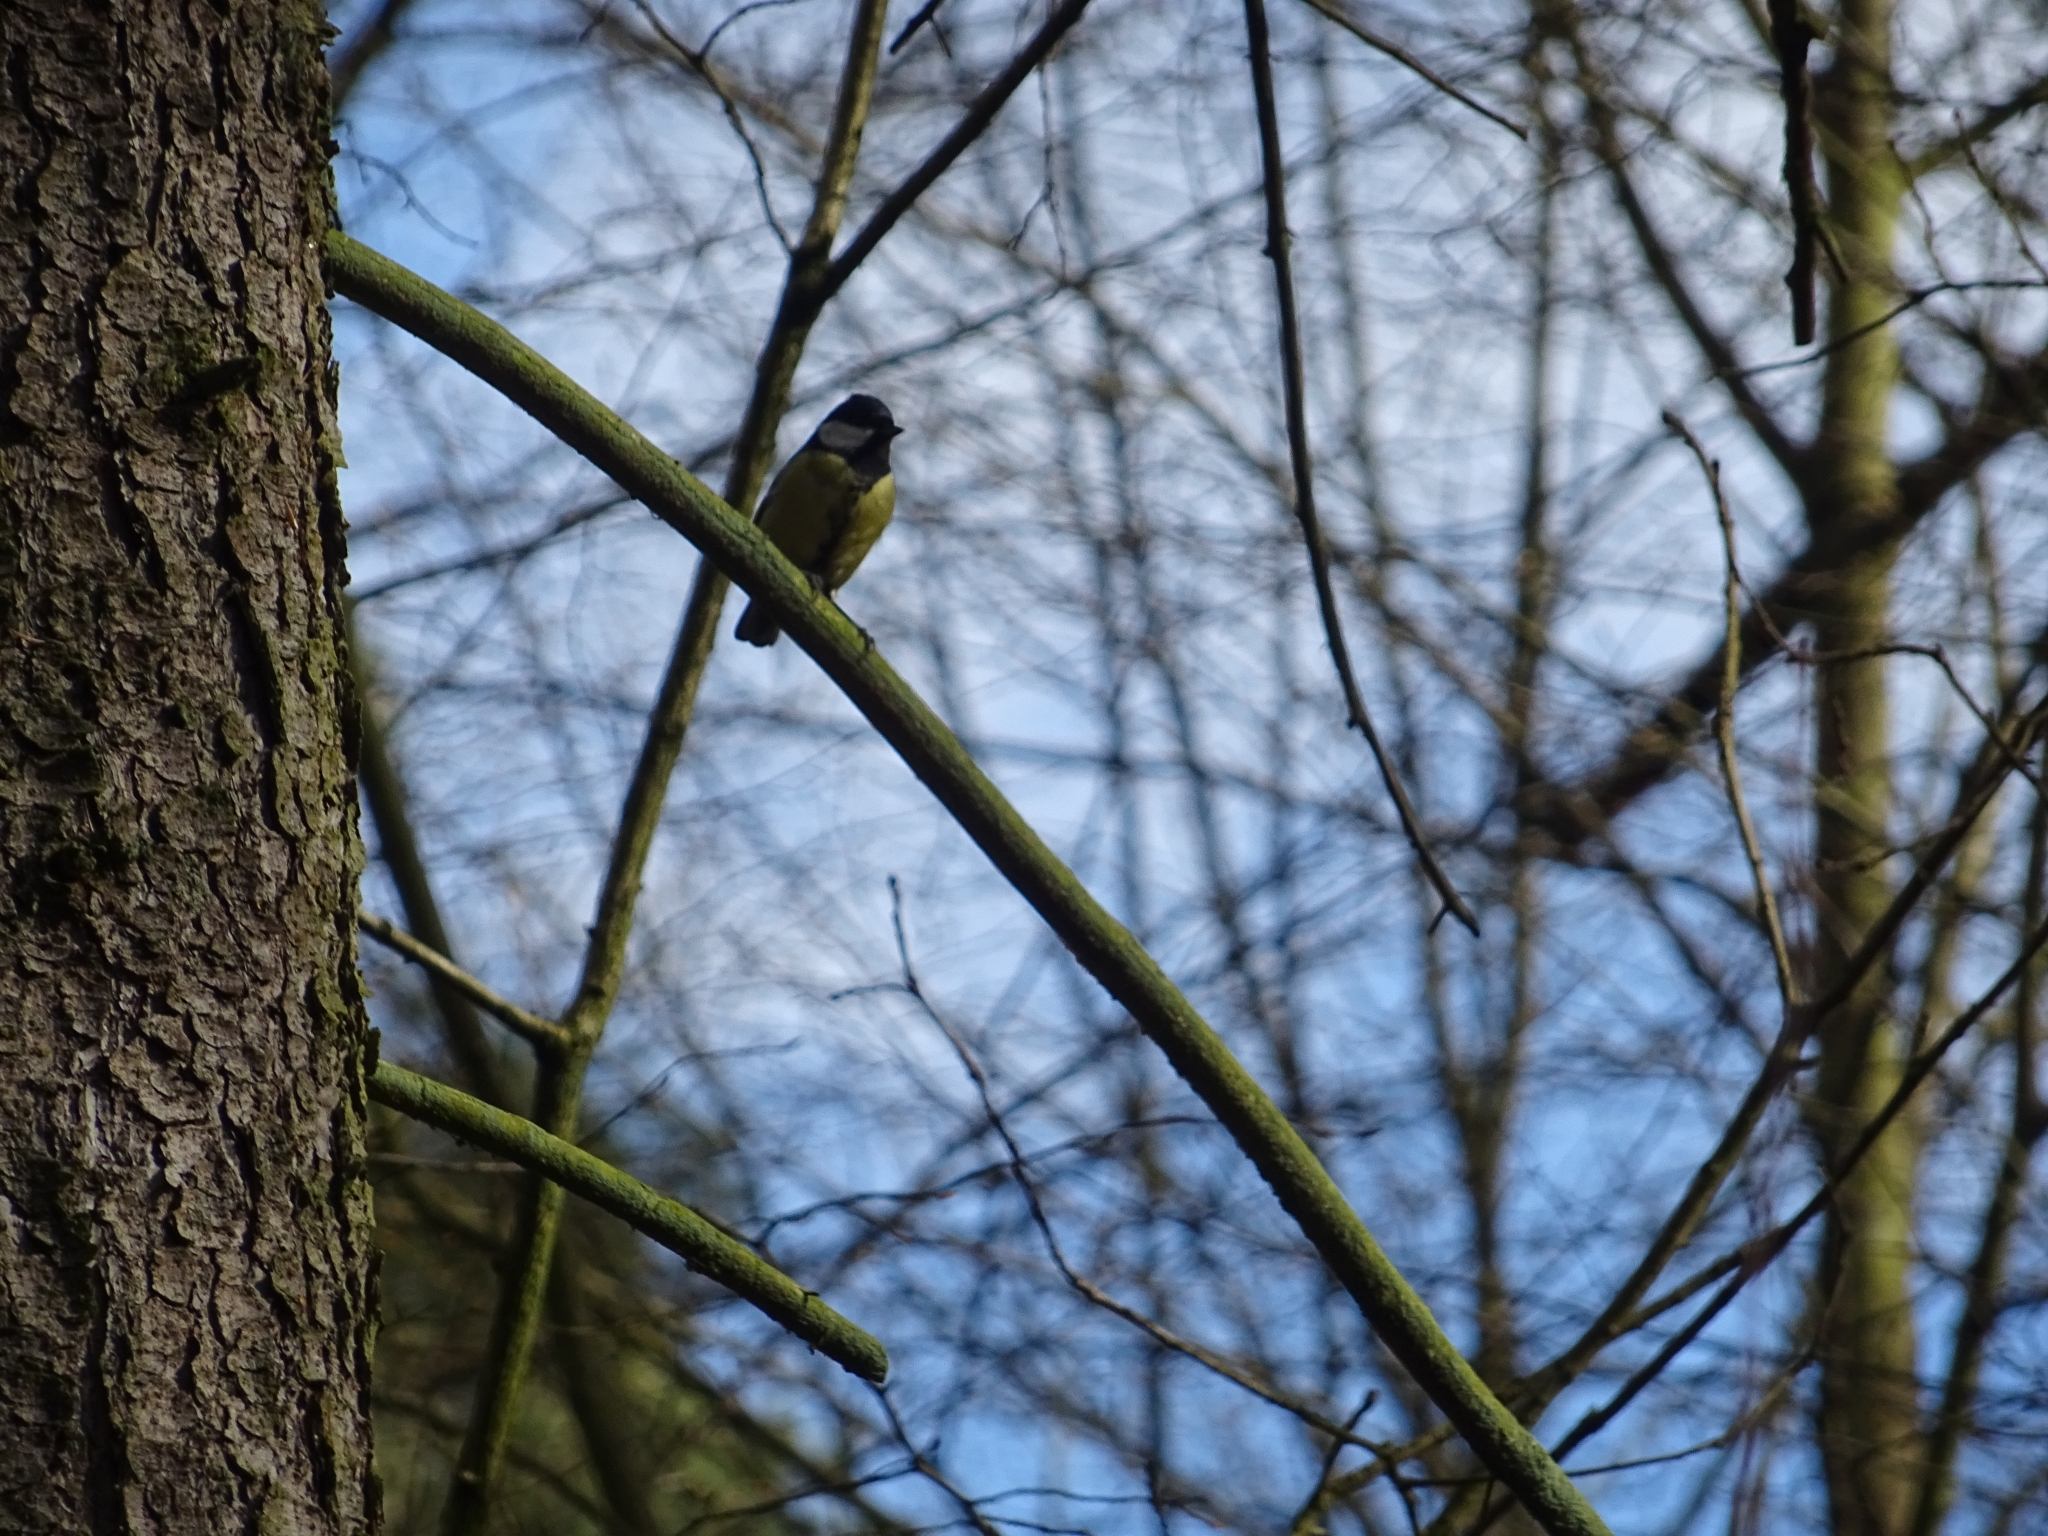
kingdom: Animalia
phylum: Chordata
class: Aves
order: Passeriformes
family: Paridae
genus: Parus
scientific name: Parus major
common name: Great tit
